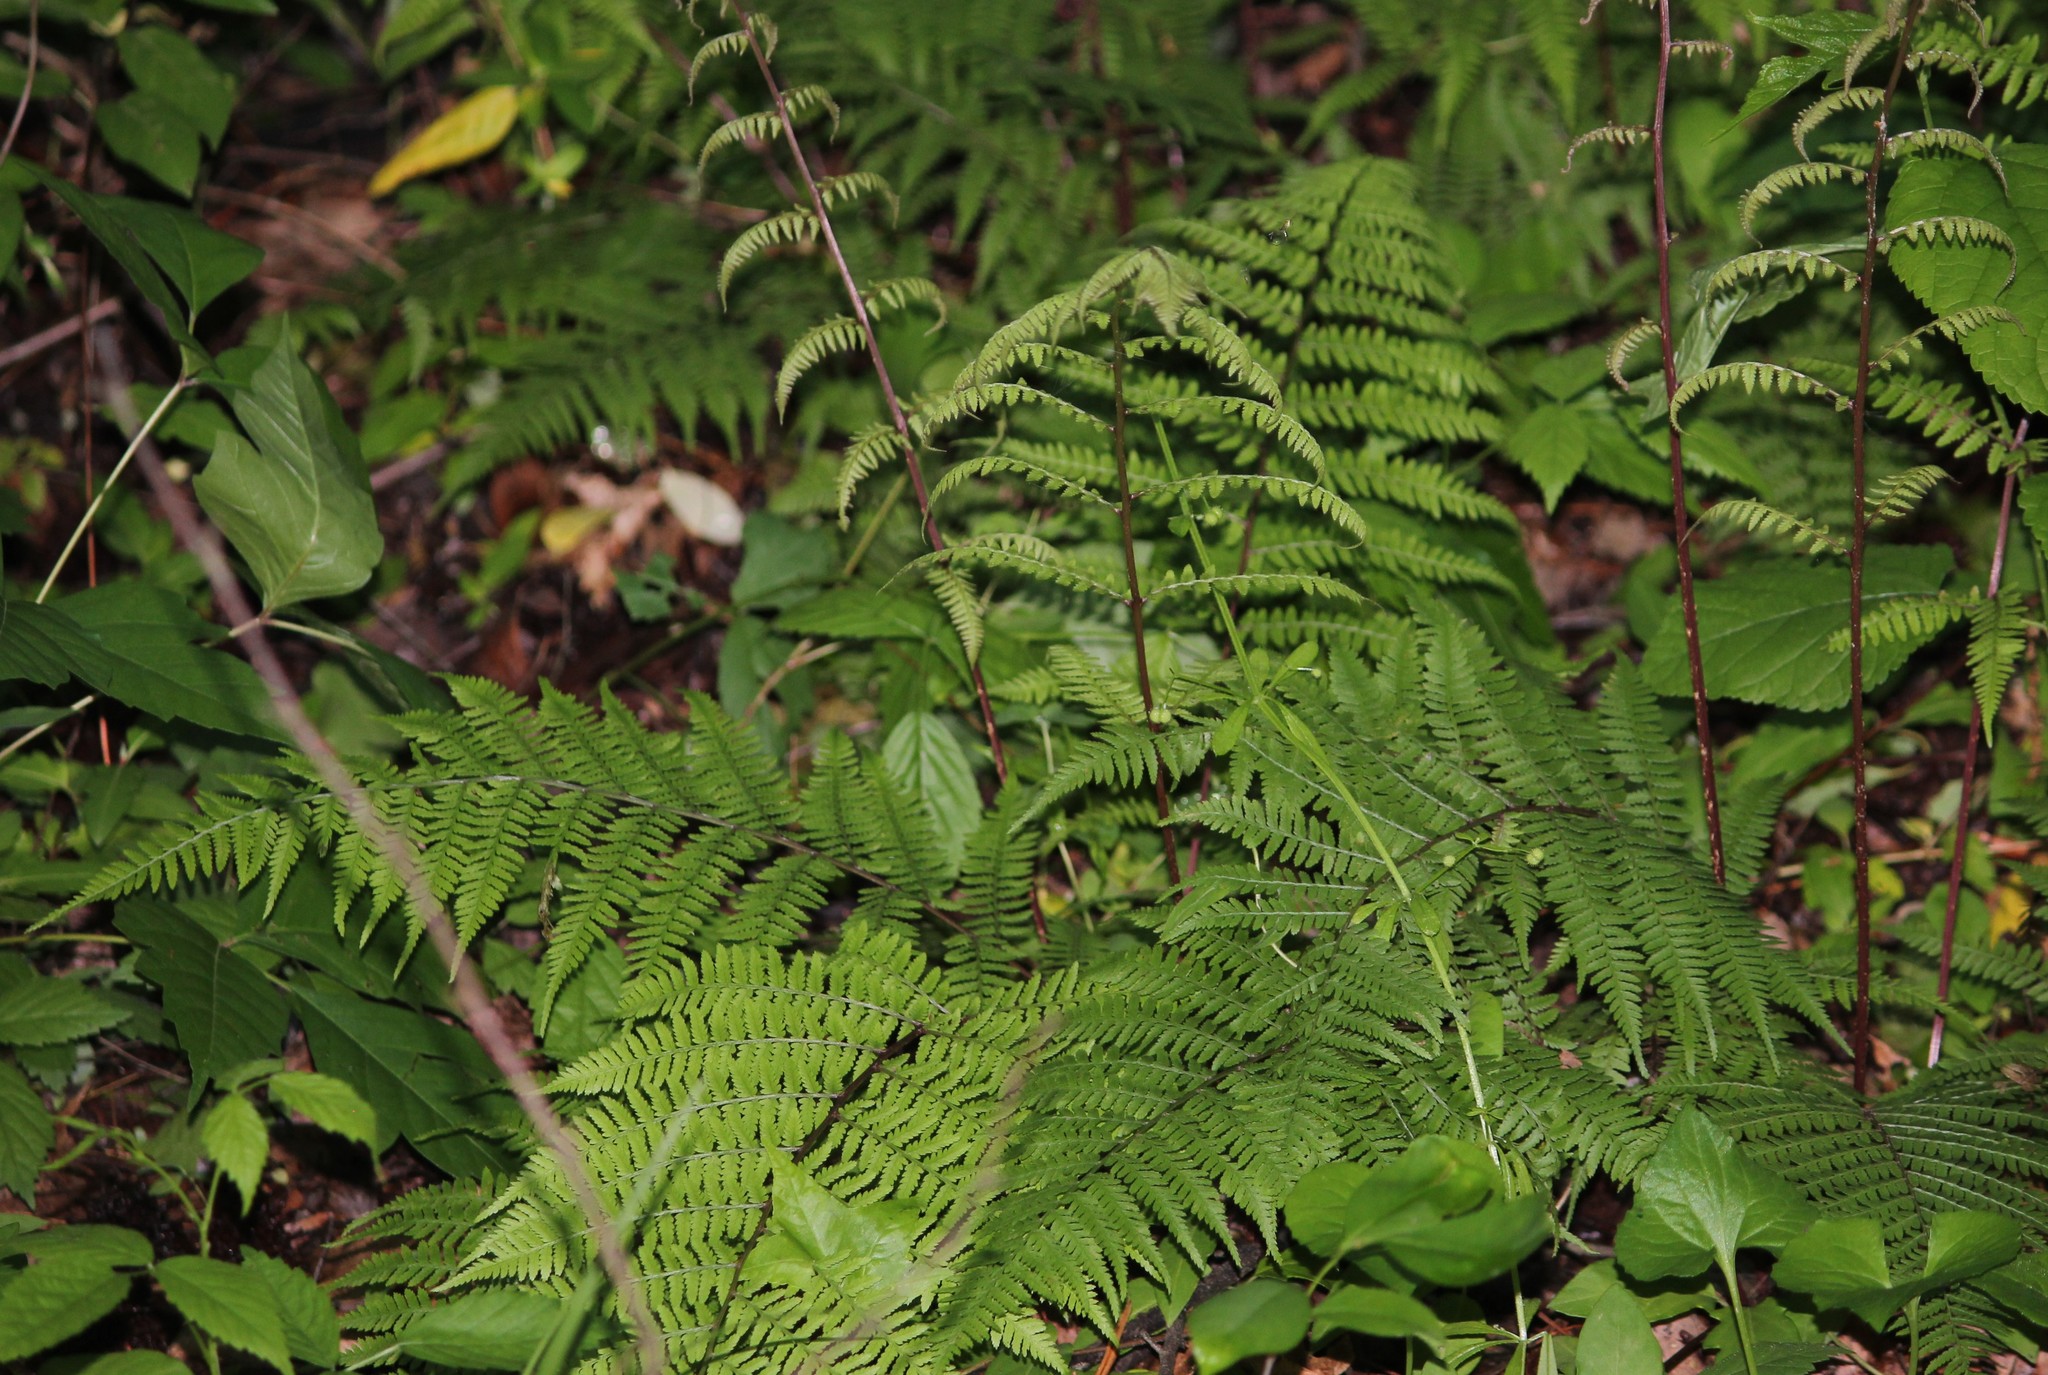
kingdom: Plantae
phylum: Tracheophyta
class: Polypodiopsida
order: Polypodiales
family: Athyriaceae
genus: Athyrium
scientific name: Athyrium asplenioides
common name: Southern lady fern
